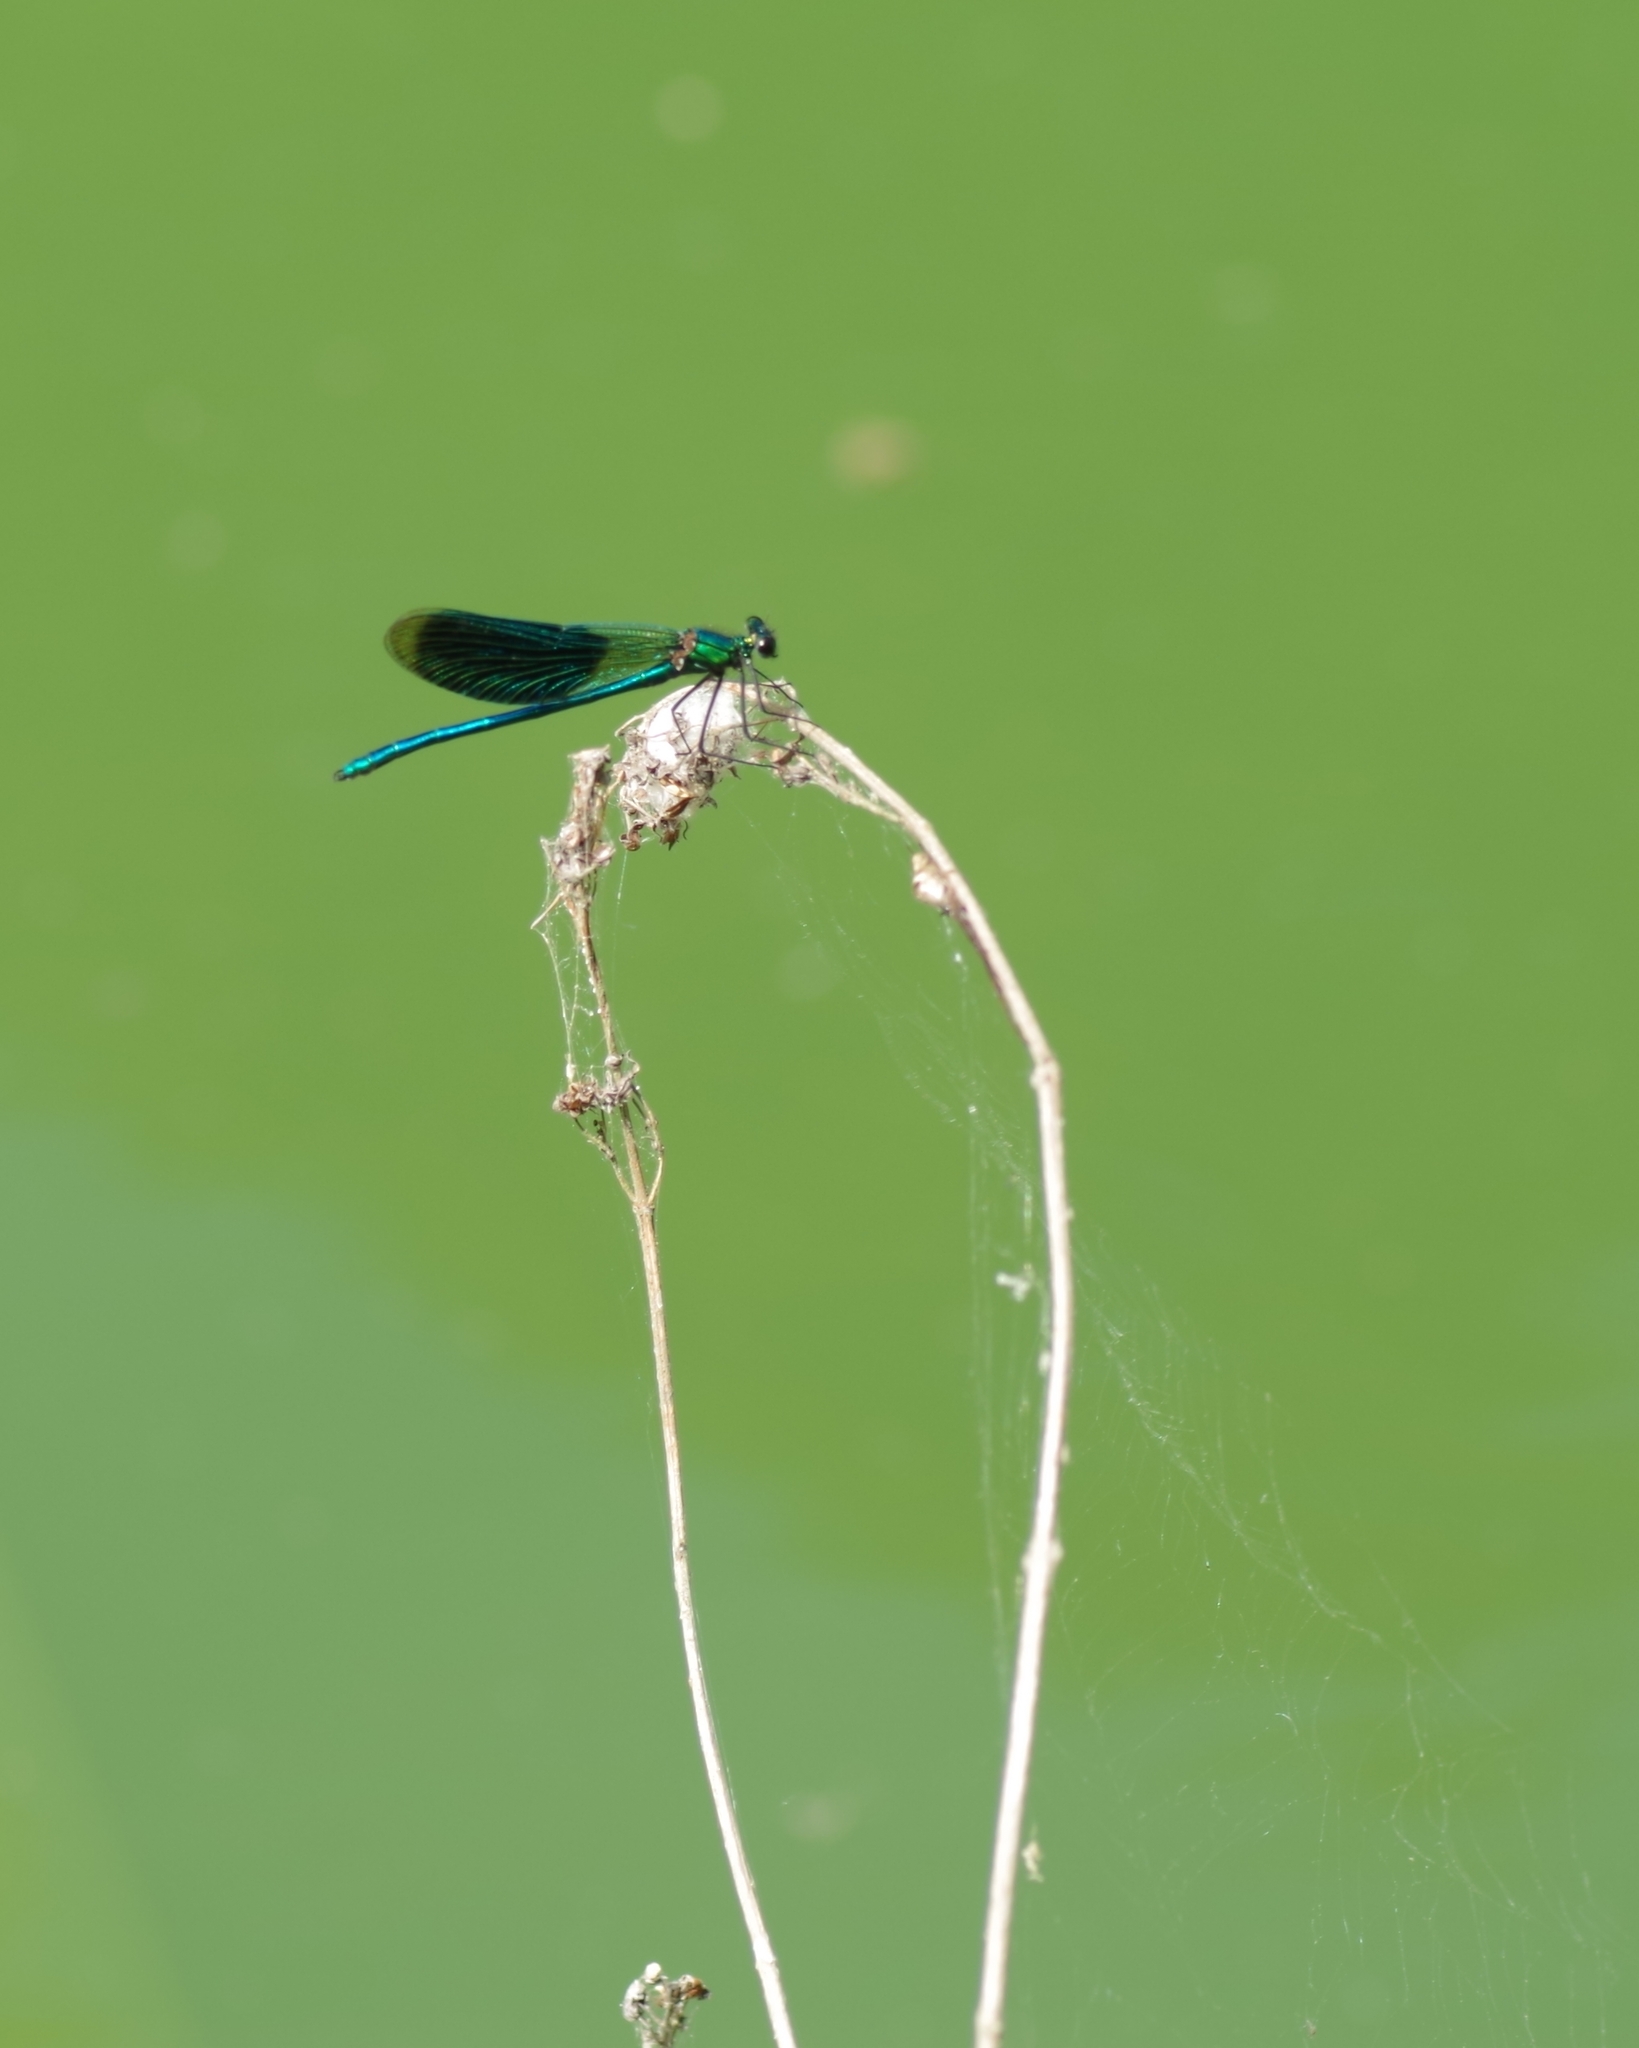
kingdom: Animalia
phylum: Arthropoda
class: Insecta
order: Odonata
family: Calopterygidae
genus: Calopteryx
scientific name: Calopteryx splendens
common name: Banded demoiselle
